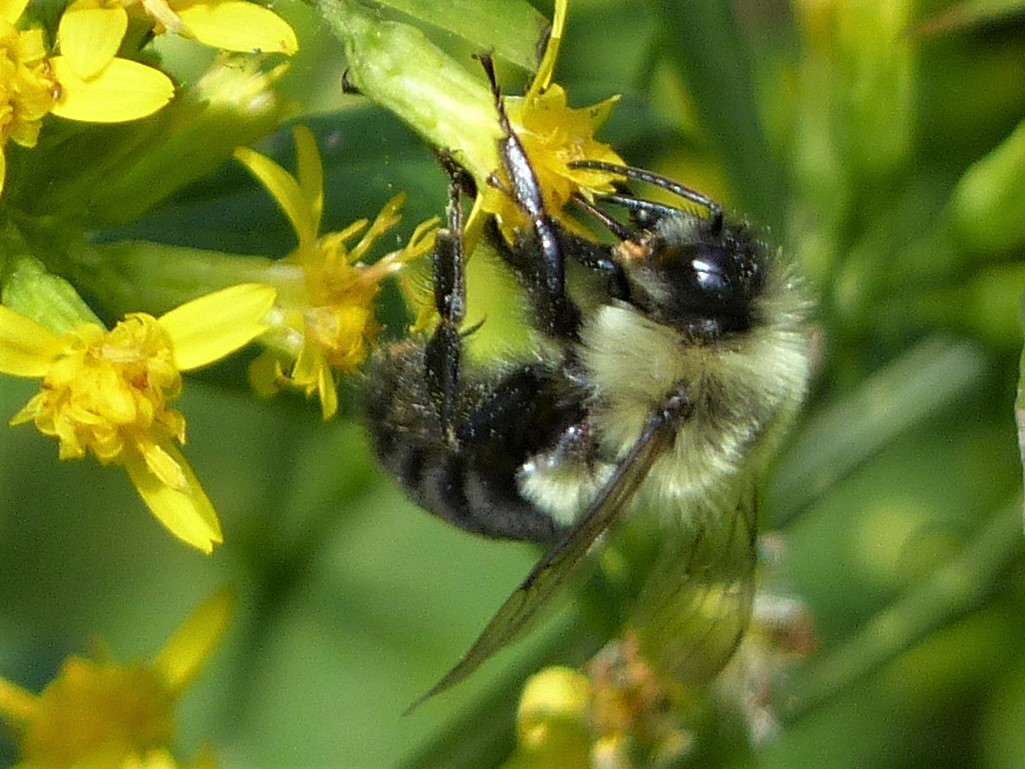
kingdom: Animalia
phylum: Arthropoda
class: Insecta
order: Hymenoptera
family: Apidae
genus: Bombus
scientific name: Bombus impatiens
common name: Common eastern bumble bee
